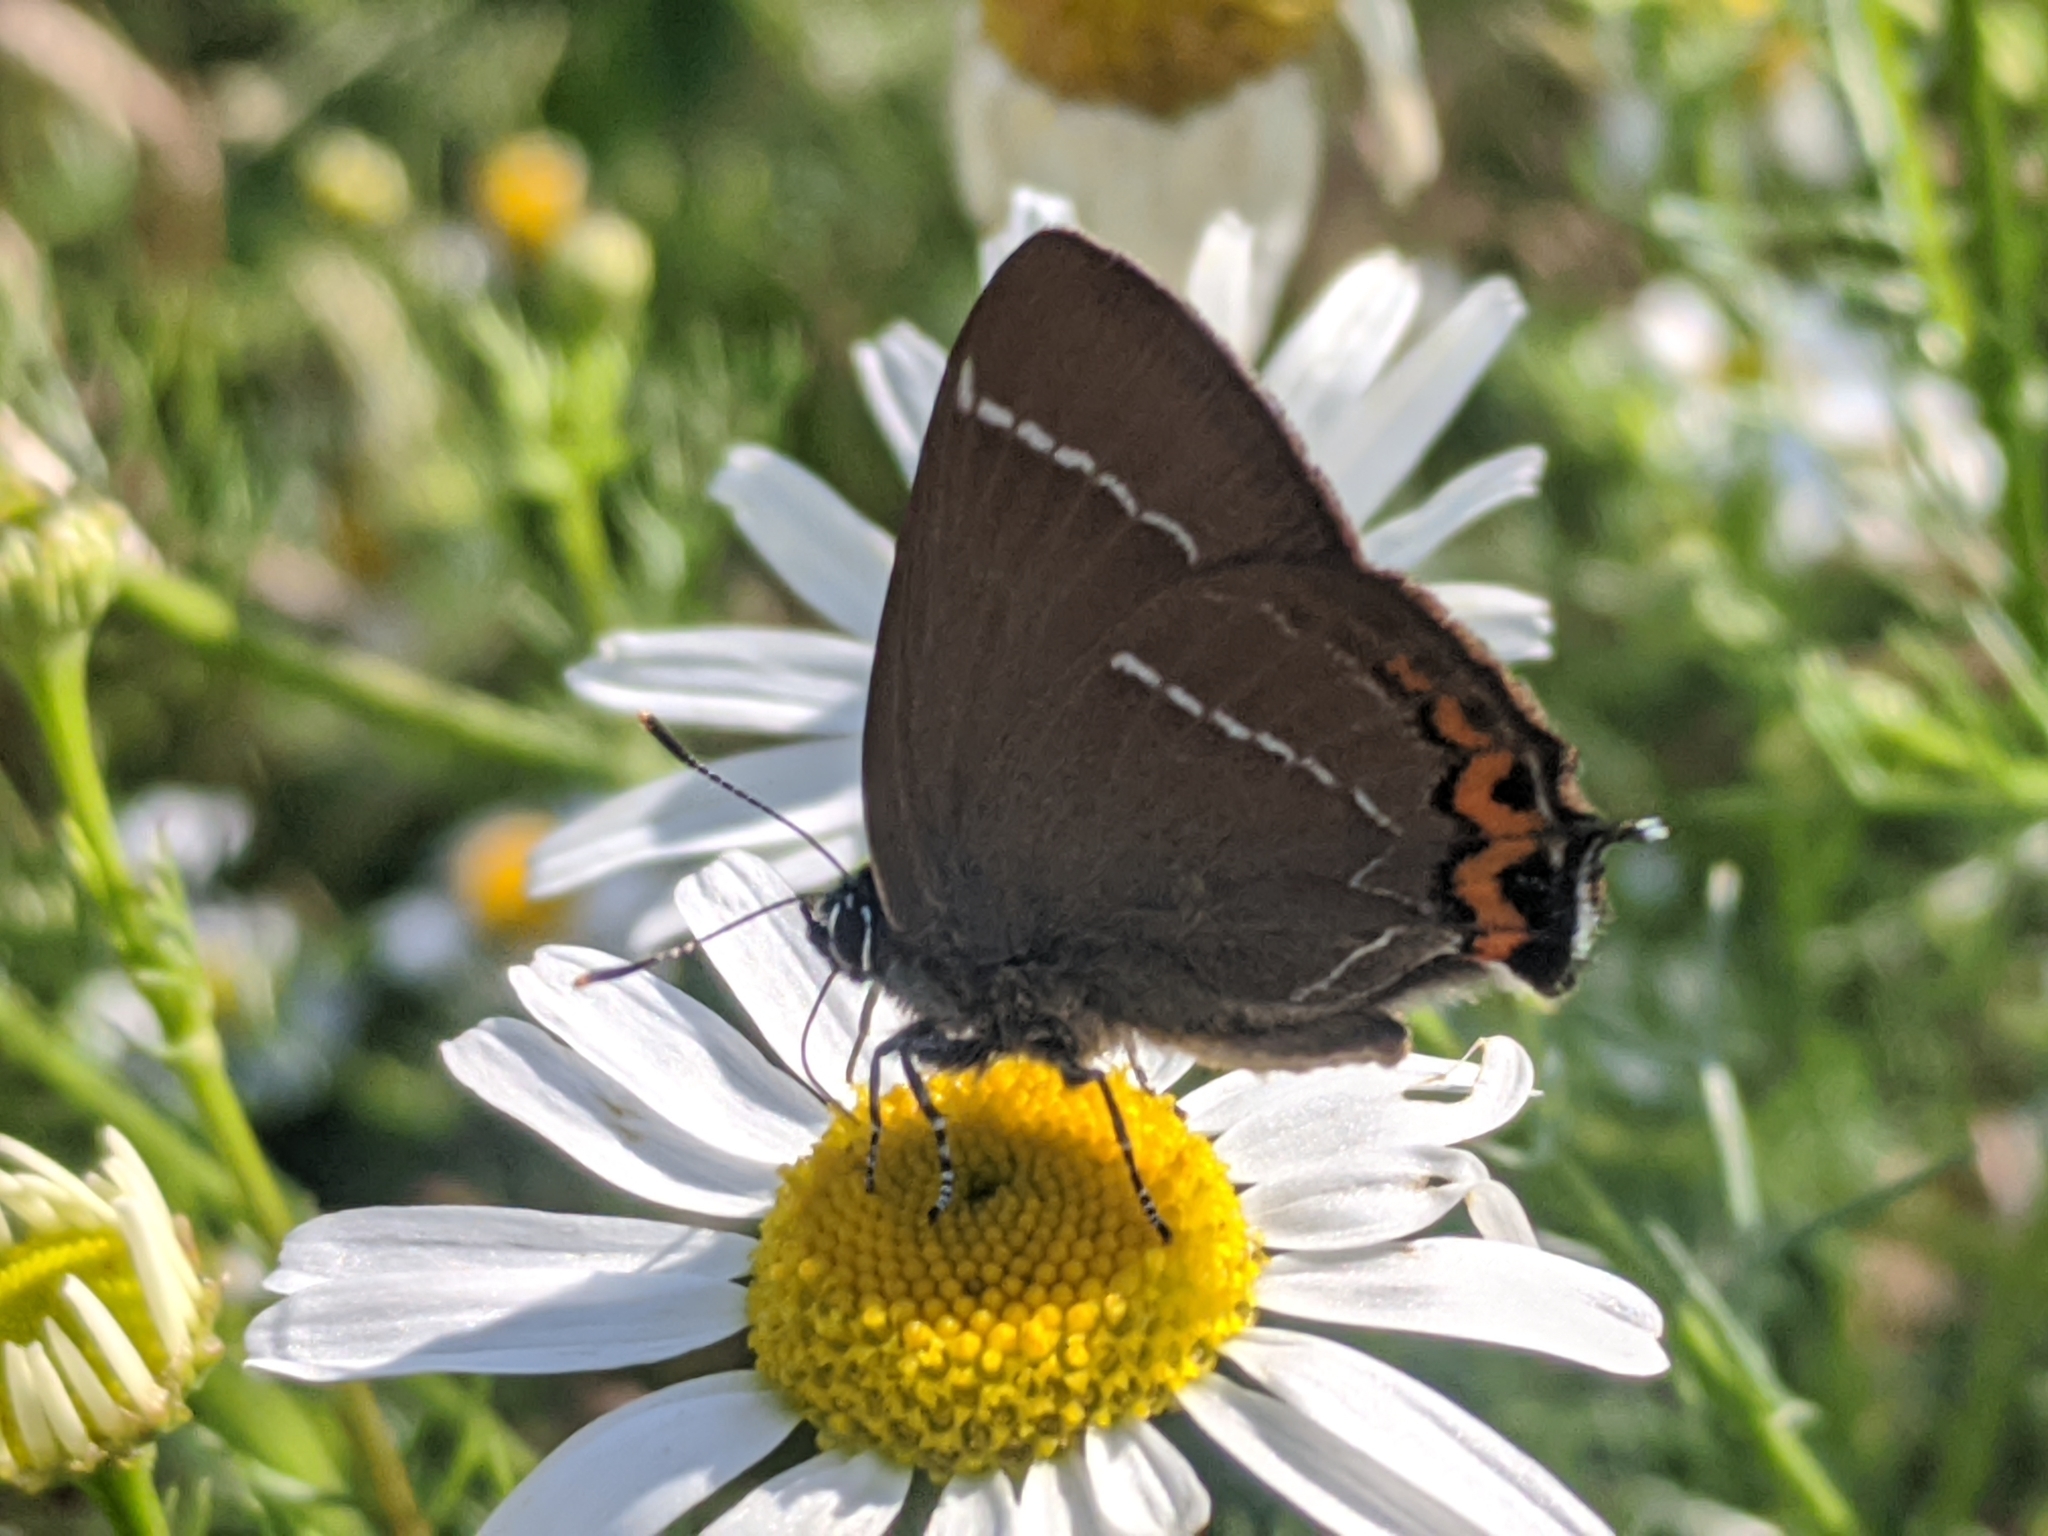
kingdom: Animalia
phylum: Arthropoda
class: Insecta
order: Lepidoptera
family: Lycaenidae
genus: Satyrium
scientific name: Satyrium w-album
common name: White-letter hairstreak
